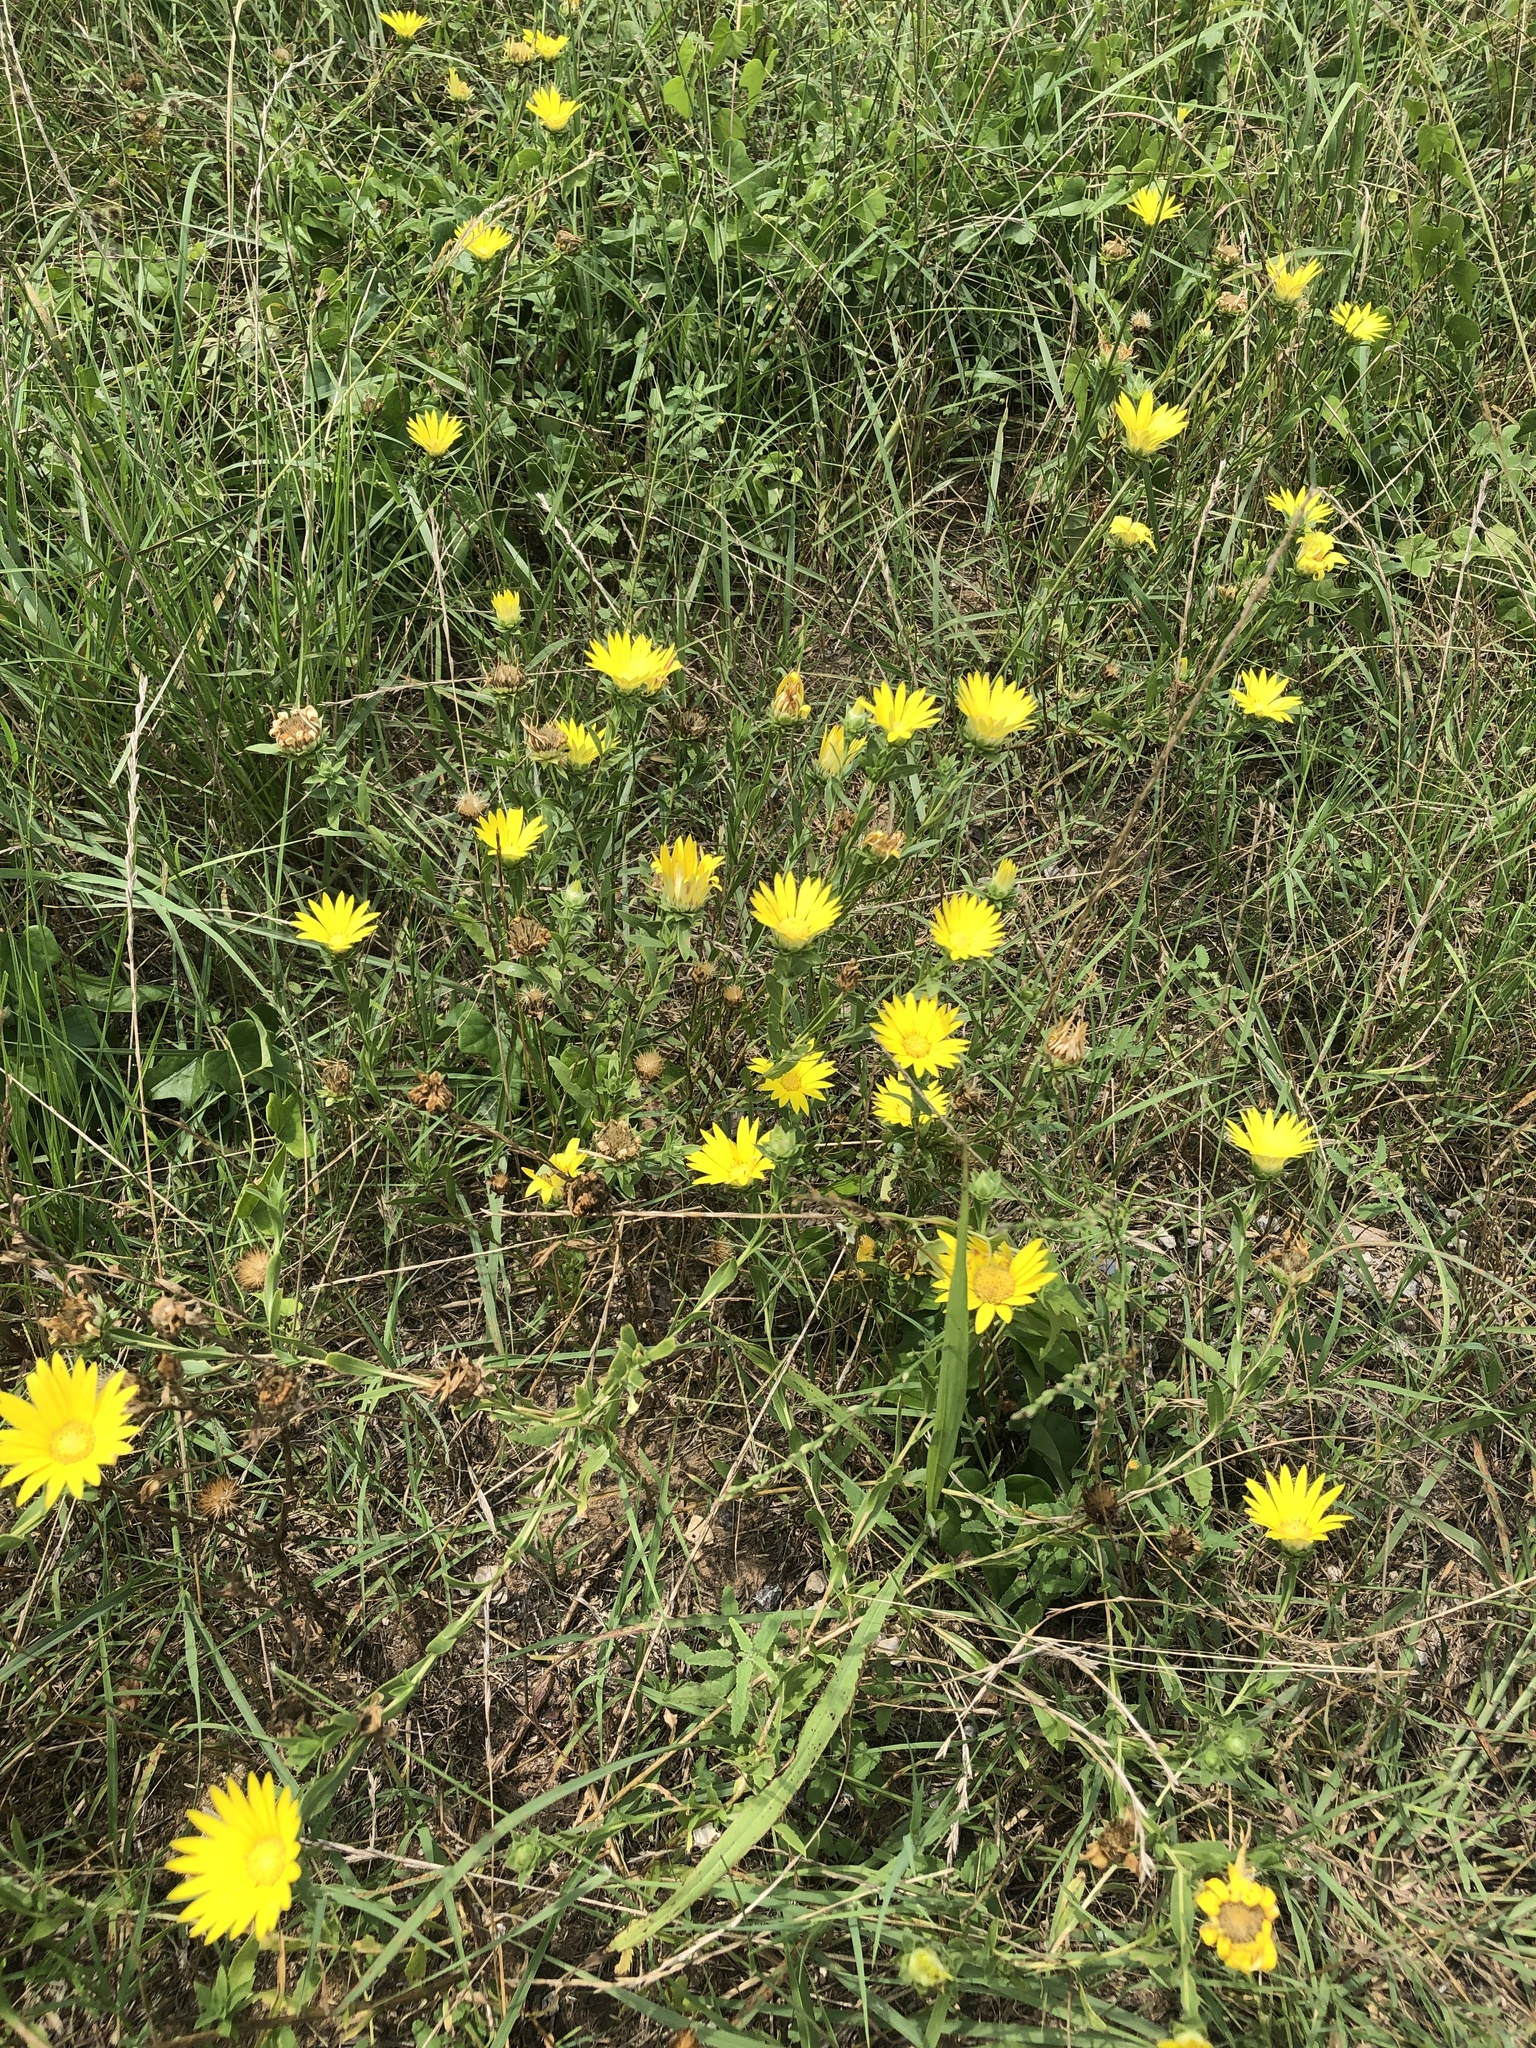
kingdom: Plantae
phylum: Tracheophyta
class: Magnoliopsida
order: Asterales
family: Asteraceae
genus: Xanthisma
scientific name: Xanthisma texanum
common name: Texas sleepy daisy
